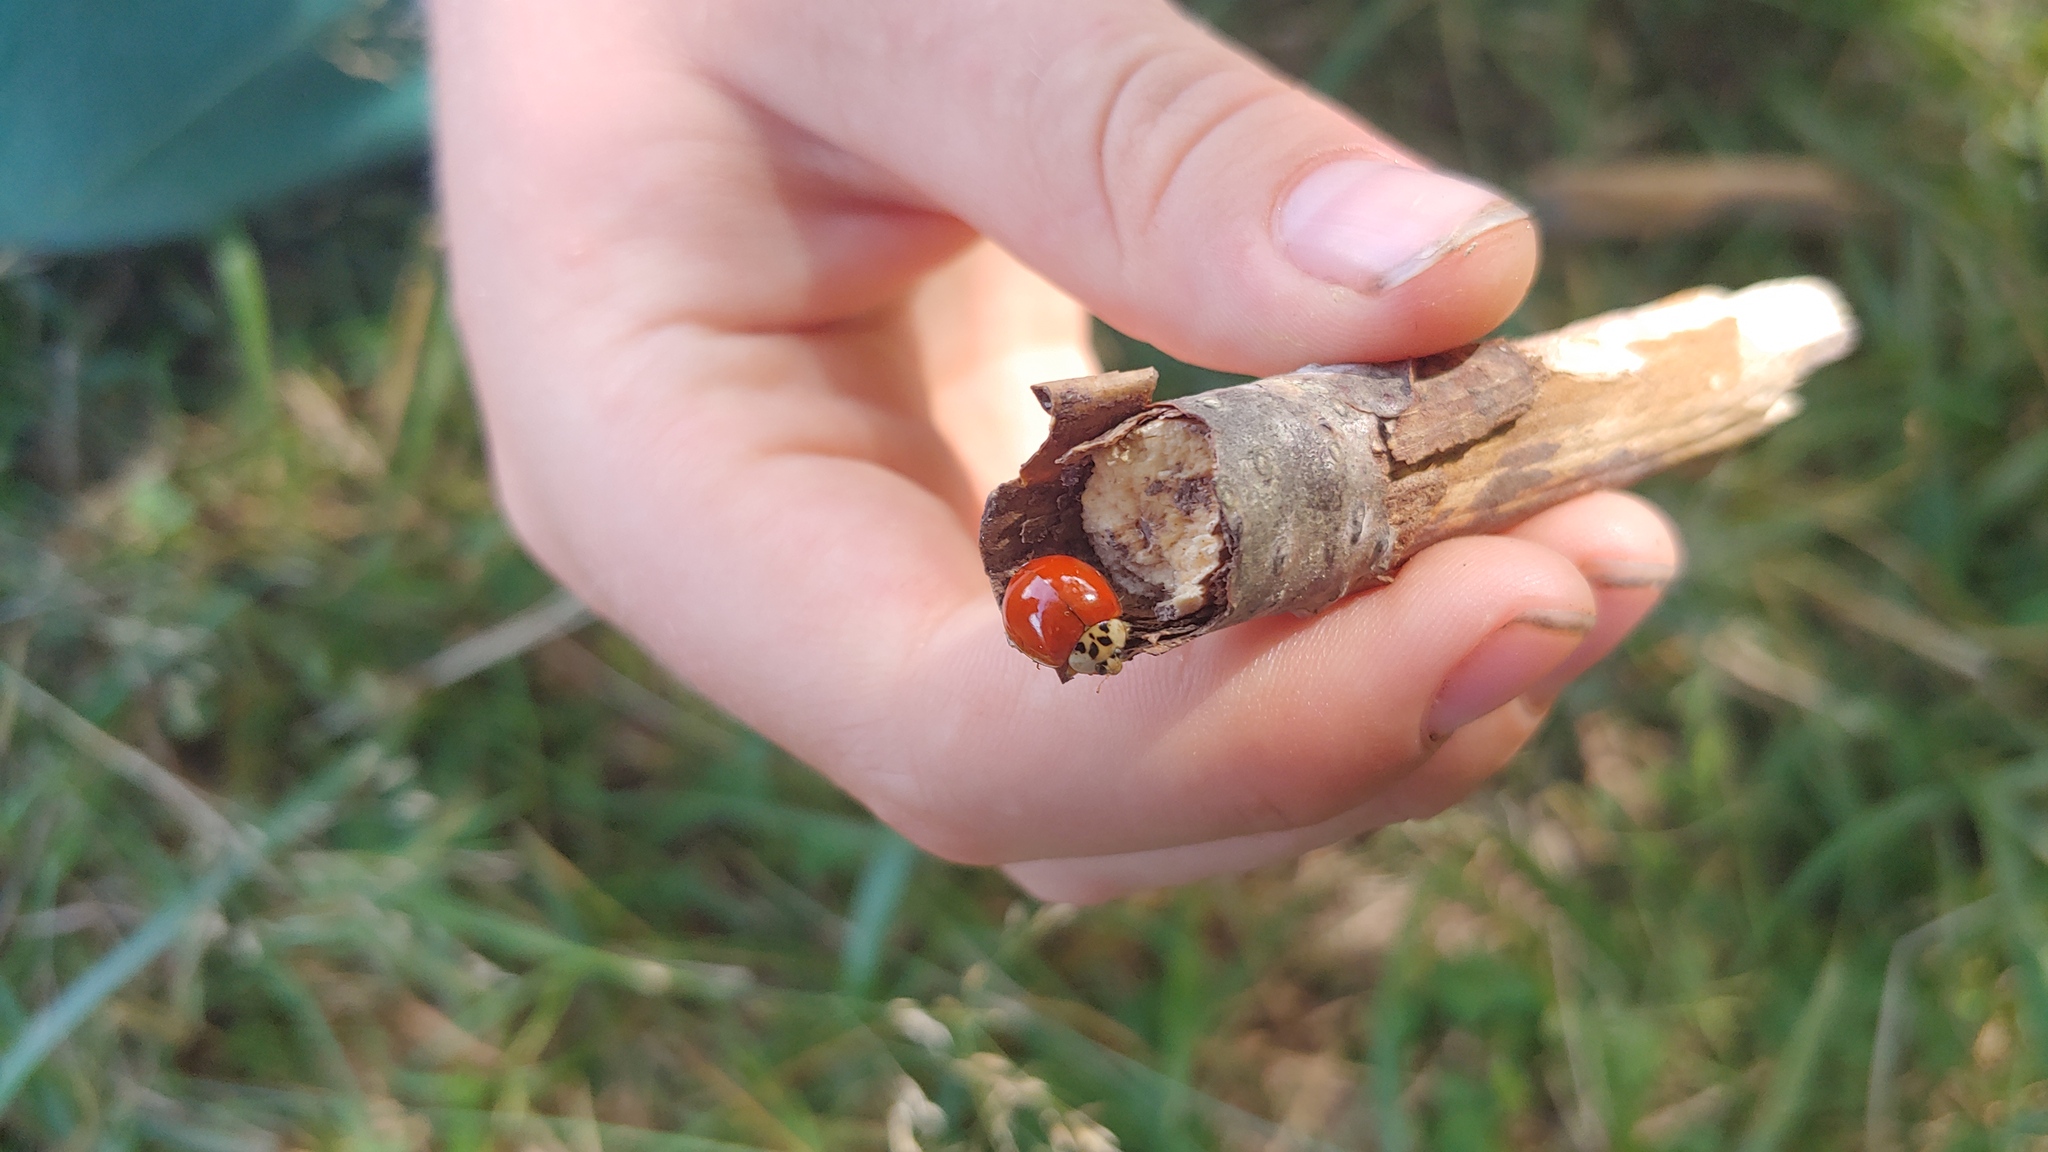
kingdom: Animalia
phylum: Arthropoda
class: Insecta
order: Coleoptera
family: Coccinellidae
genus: Harmonia
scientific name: Harmonia axyridis
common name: Harlequin ladybird
